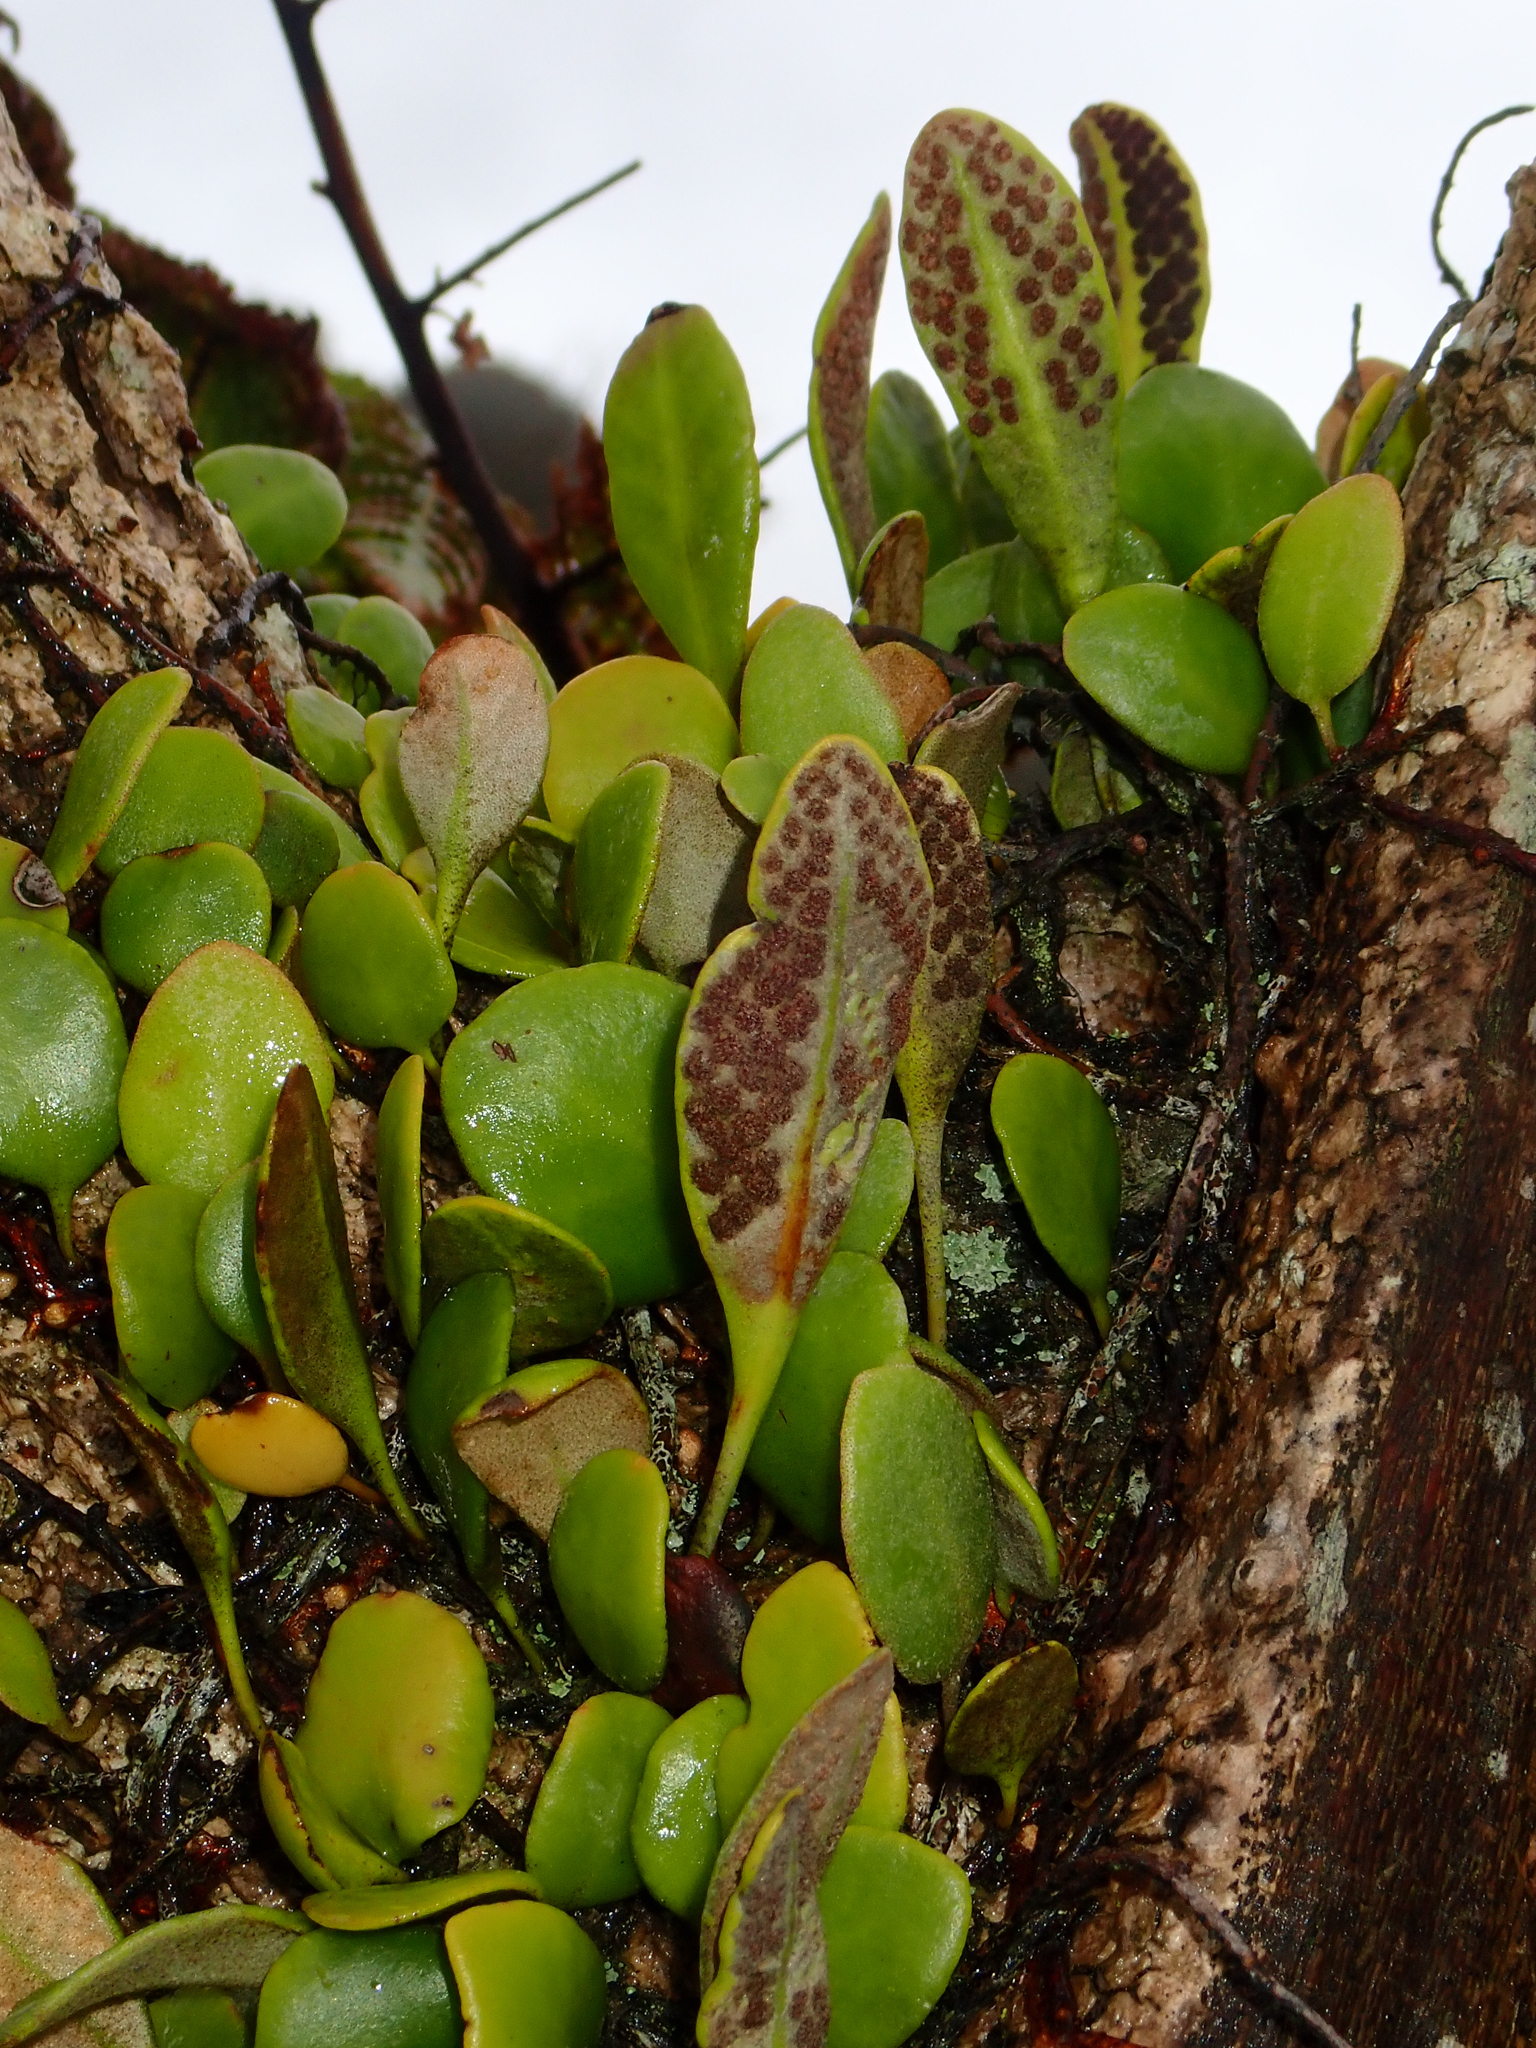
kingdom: Plantae
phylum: Tracheophyta
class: Polypodiopsida
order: Polypodiales
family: Polypodiaceae
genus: Pyrrosia
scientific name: Pyrrosia eleagnifolia
